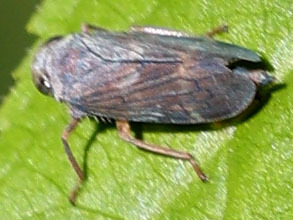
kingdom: Animalia
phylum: Arthropoda
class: Insecta
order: Hemiptera
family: Cicadellidae
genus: Jikradia
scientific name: Jikradia olitoria
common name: Coppery leafhopper
